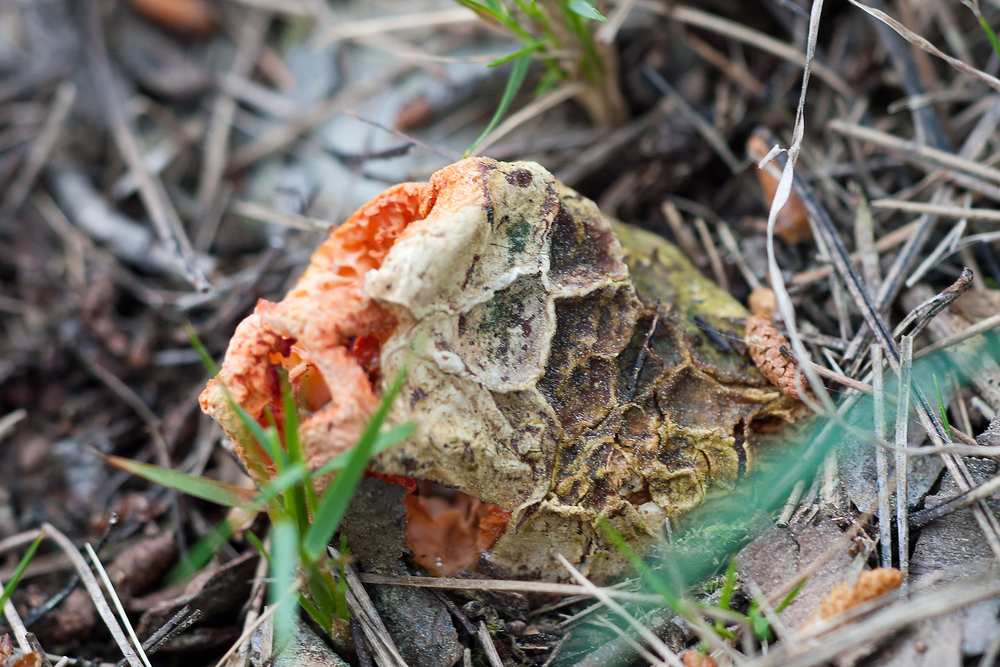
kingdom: Fungi
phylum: Basidiomycota
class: Agaricomycetes
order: Phallales
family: Phallaceae
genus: Clathrus
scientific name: Clathrus ruber
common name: Red cage
